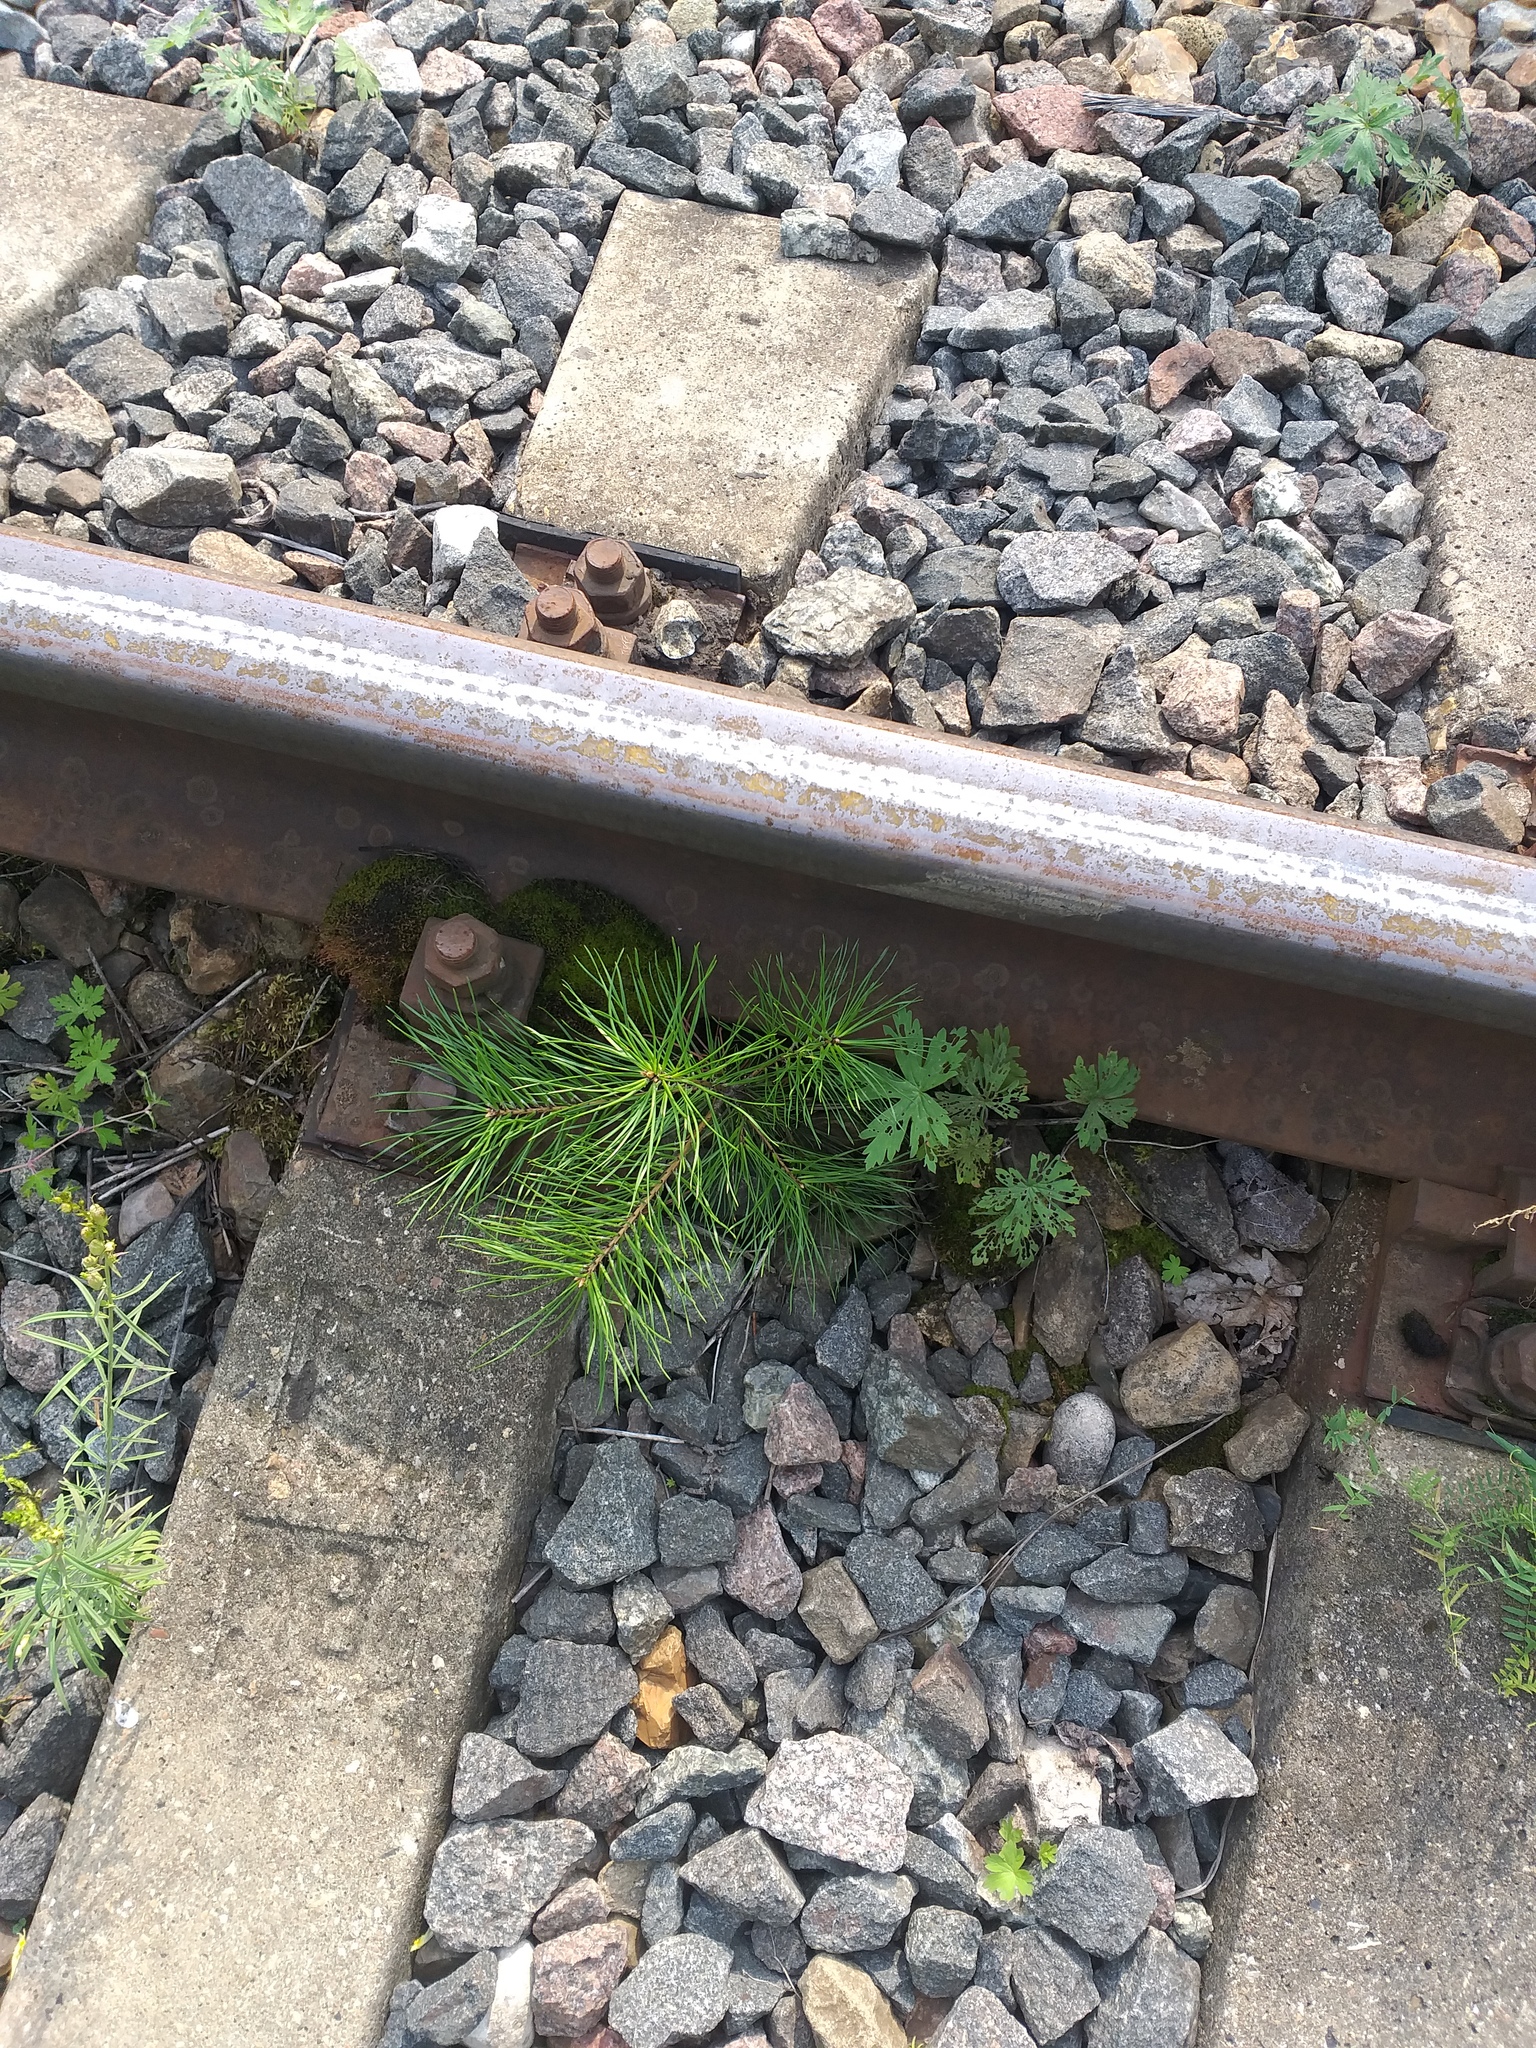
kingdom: Plantae
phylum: Tracheophyta
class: Pinopsida
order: Pinales
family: Pinaceae
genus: Pinus
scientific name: Pinus sylvestris
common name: Scots pine
